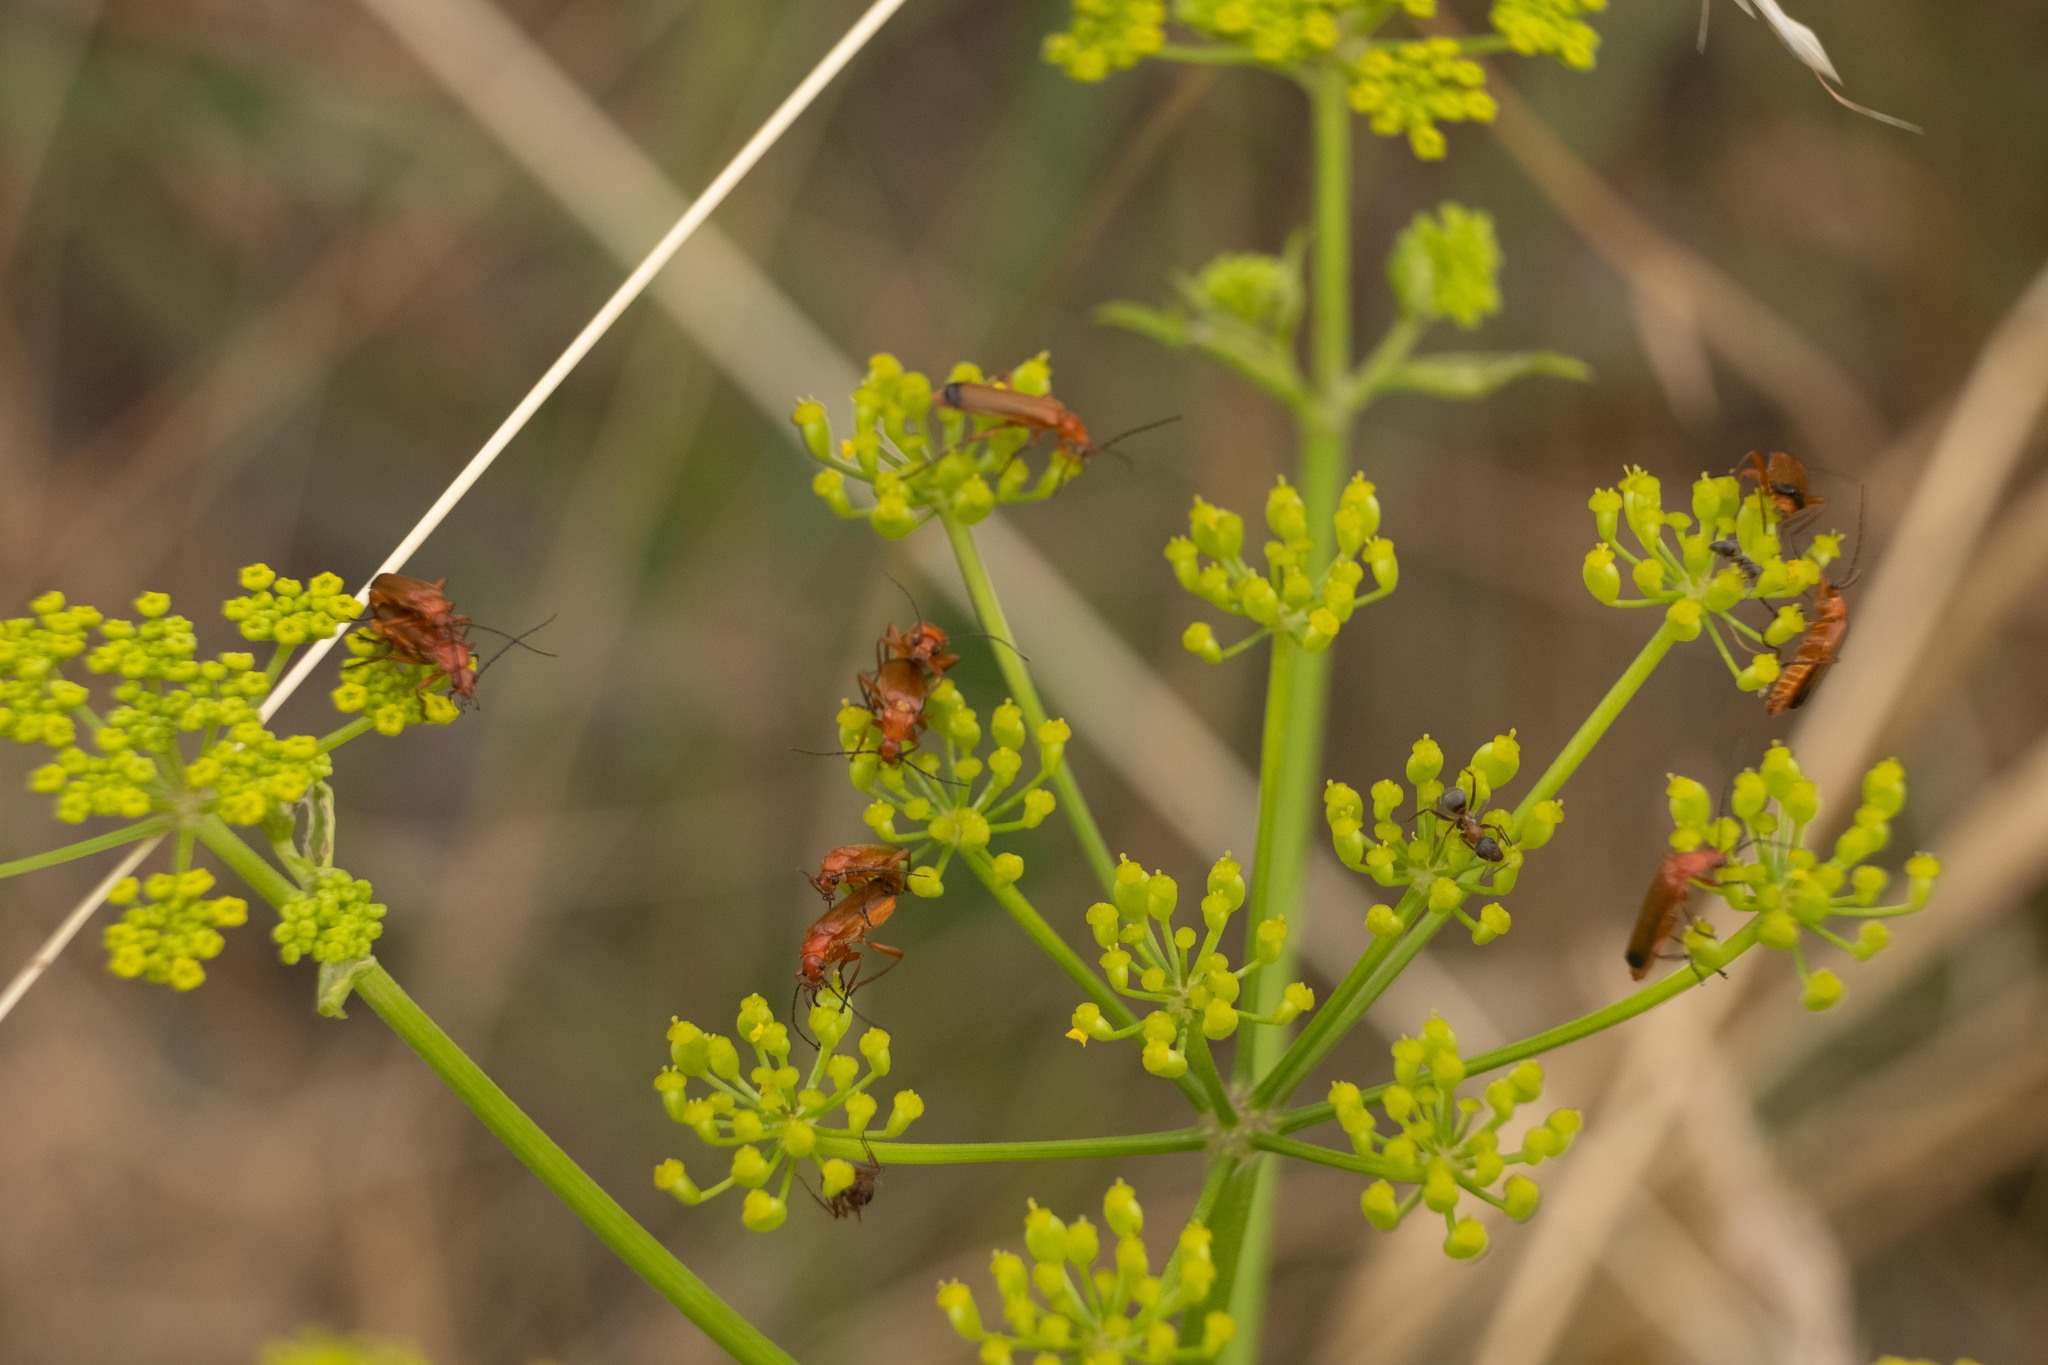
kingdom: Animalia
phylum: Arthropoda
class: Insecta
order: Coleoptera
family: Cantharidae
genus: Rhagonycha
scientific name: Rhagonycha fulva
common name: Common red soldier beetle
